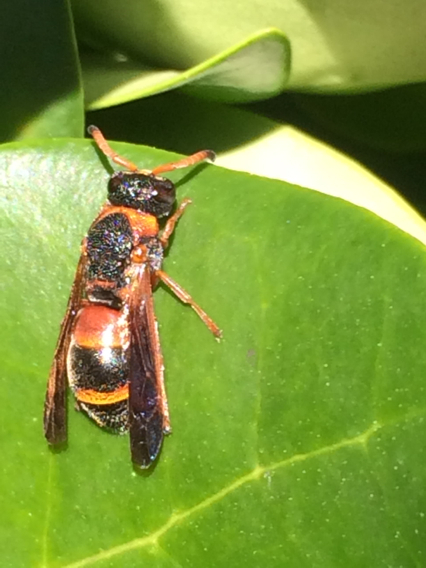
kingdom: Animalia
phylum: Arthropoda
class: Insecta
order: Hymenoptera
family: Eumenidae
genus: Pachodynerus
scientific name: Pachodynerus erynnis
